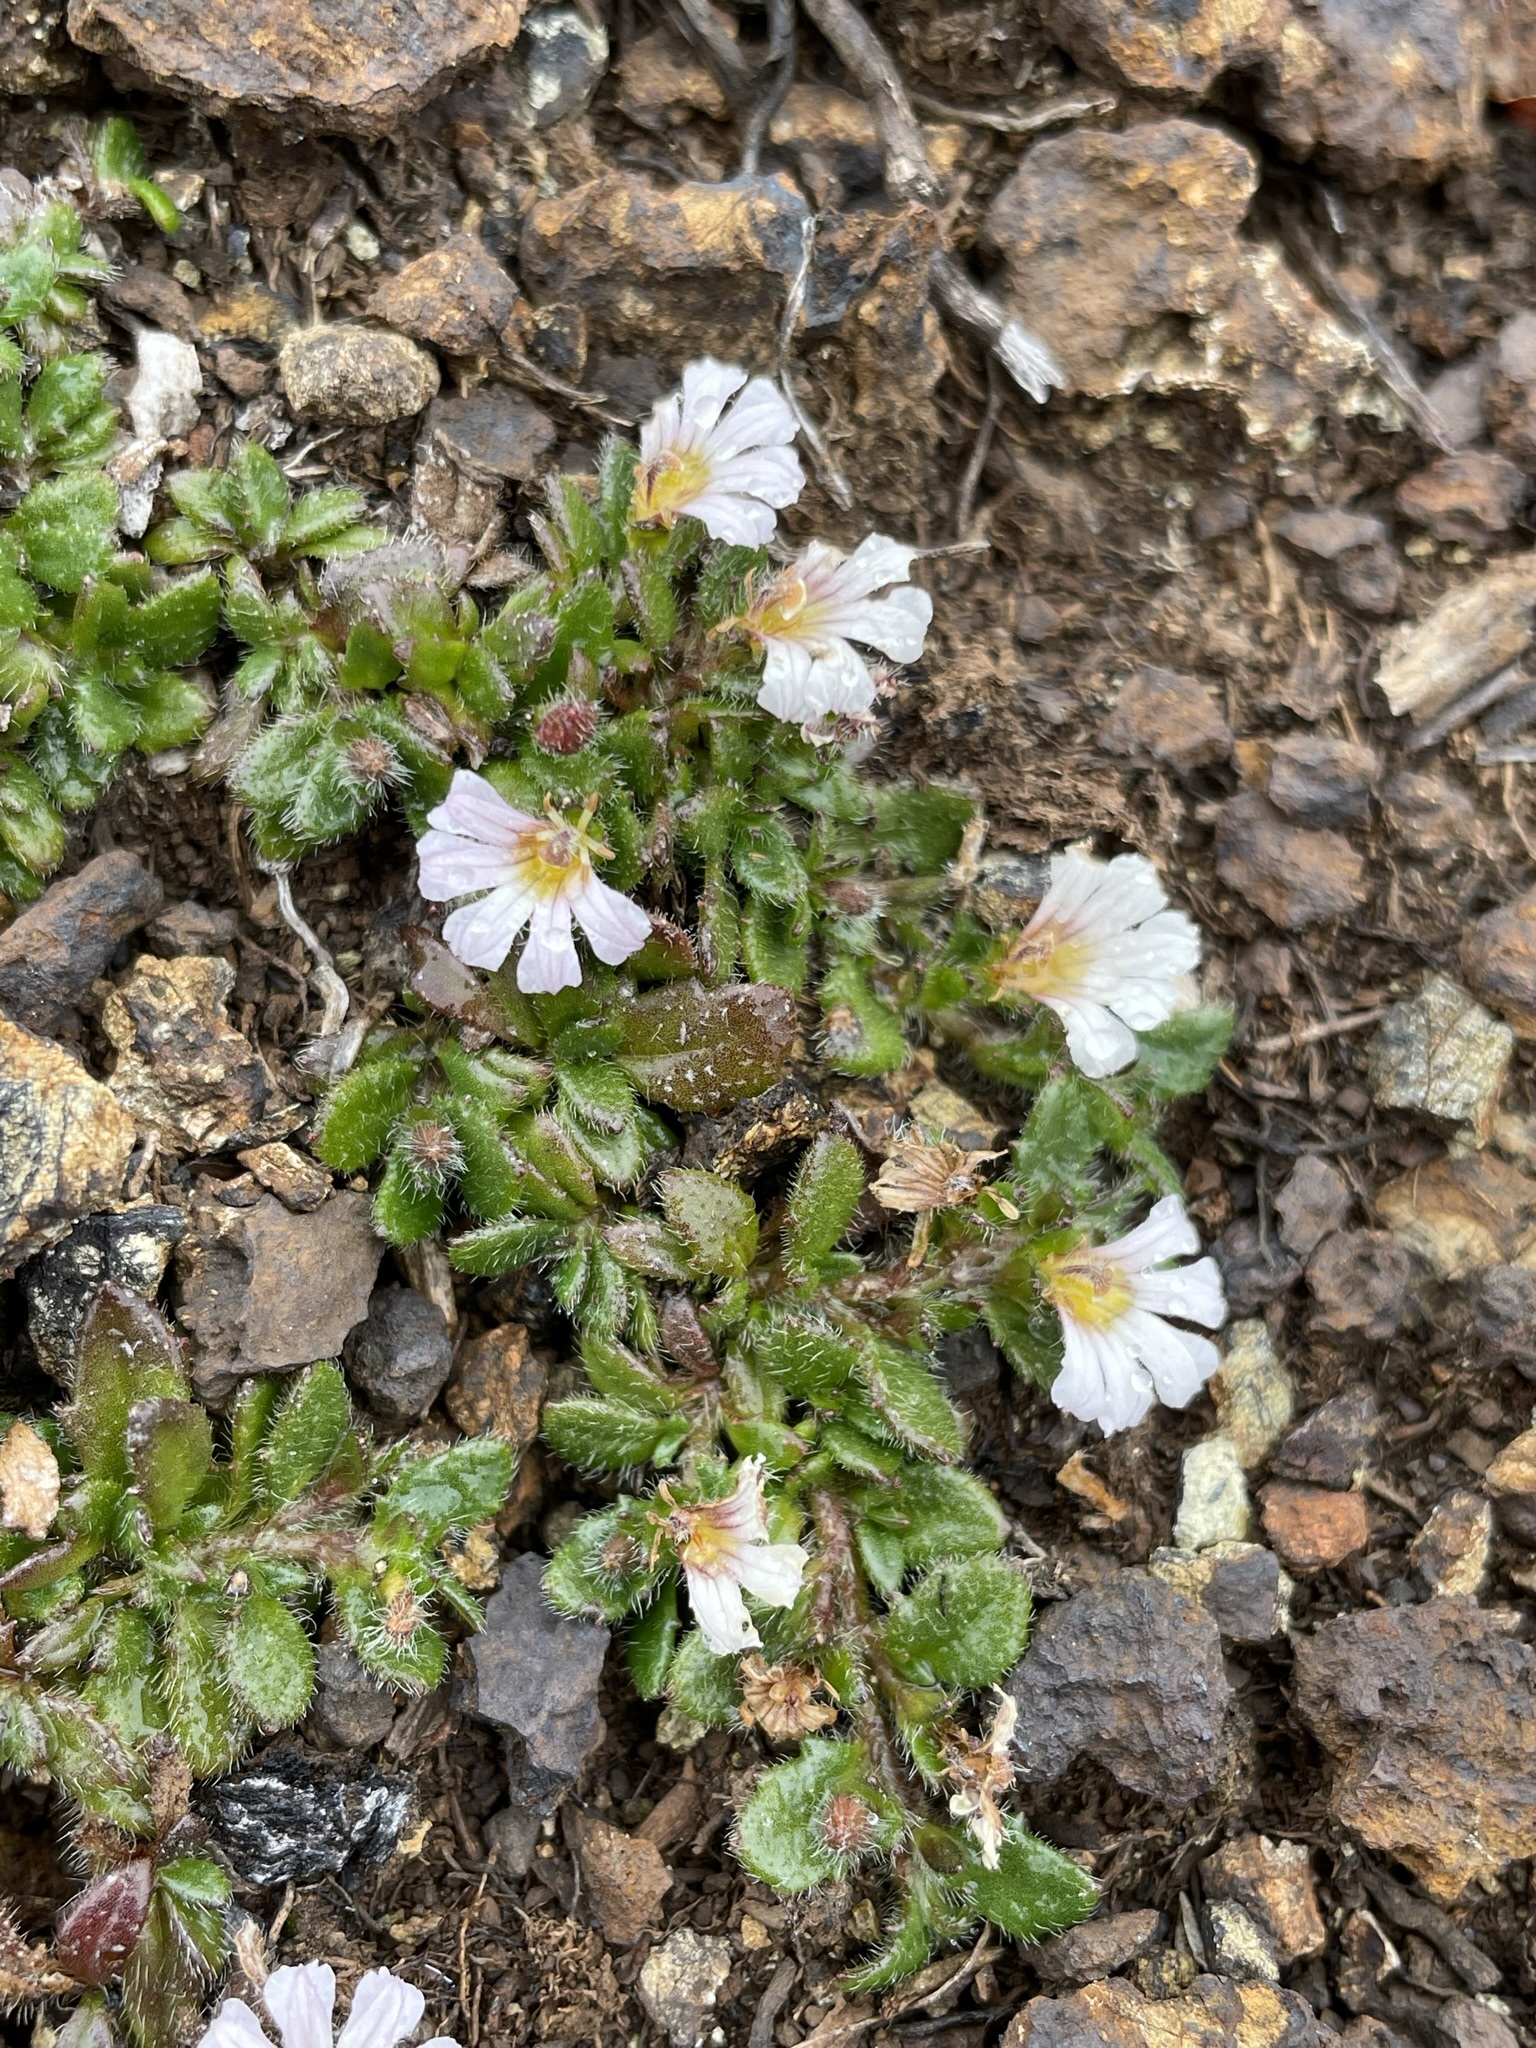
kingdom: Plantae
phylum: Tracheophyta
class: Magnoliopsida
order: Asterales
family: Goodeniaceae
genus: Scaevola
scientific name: Scaevola hookeri
